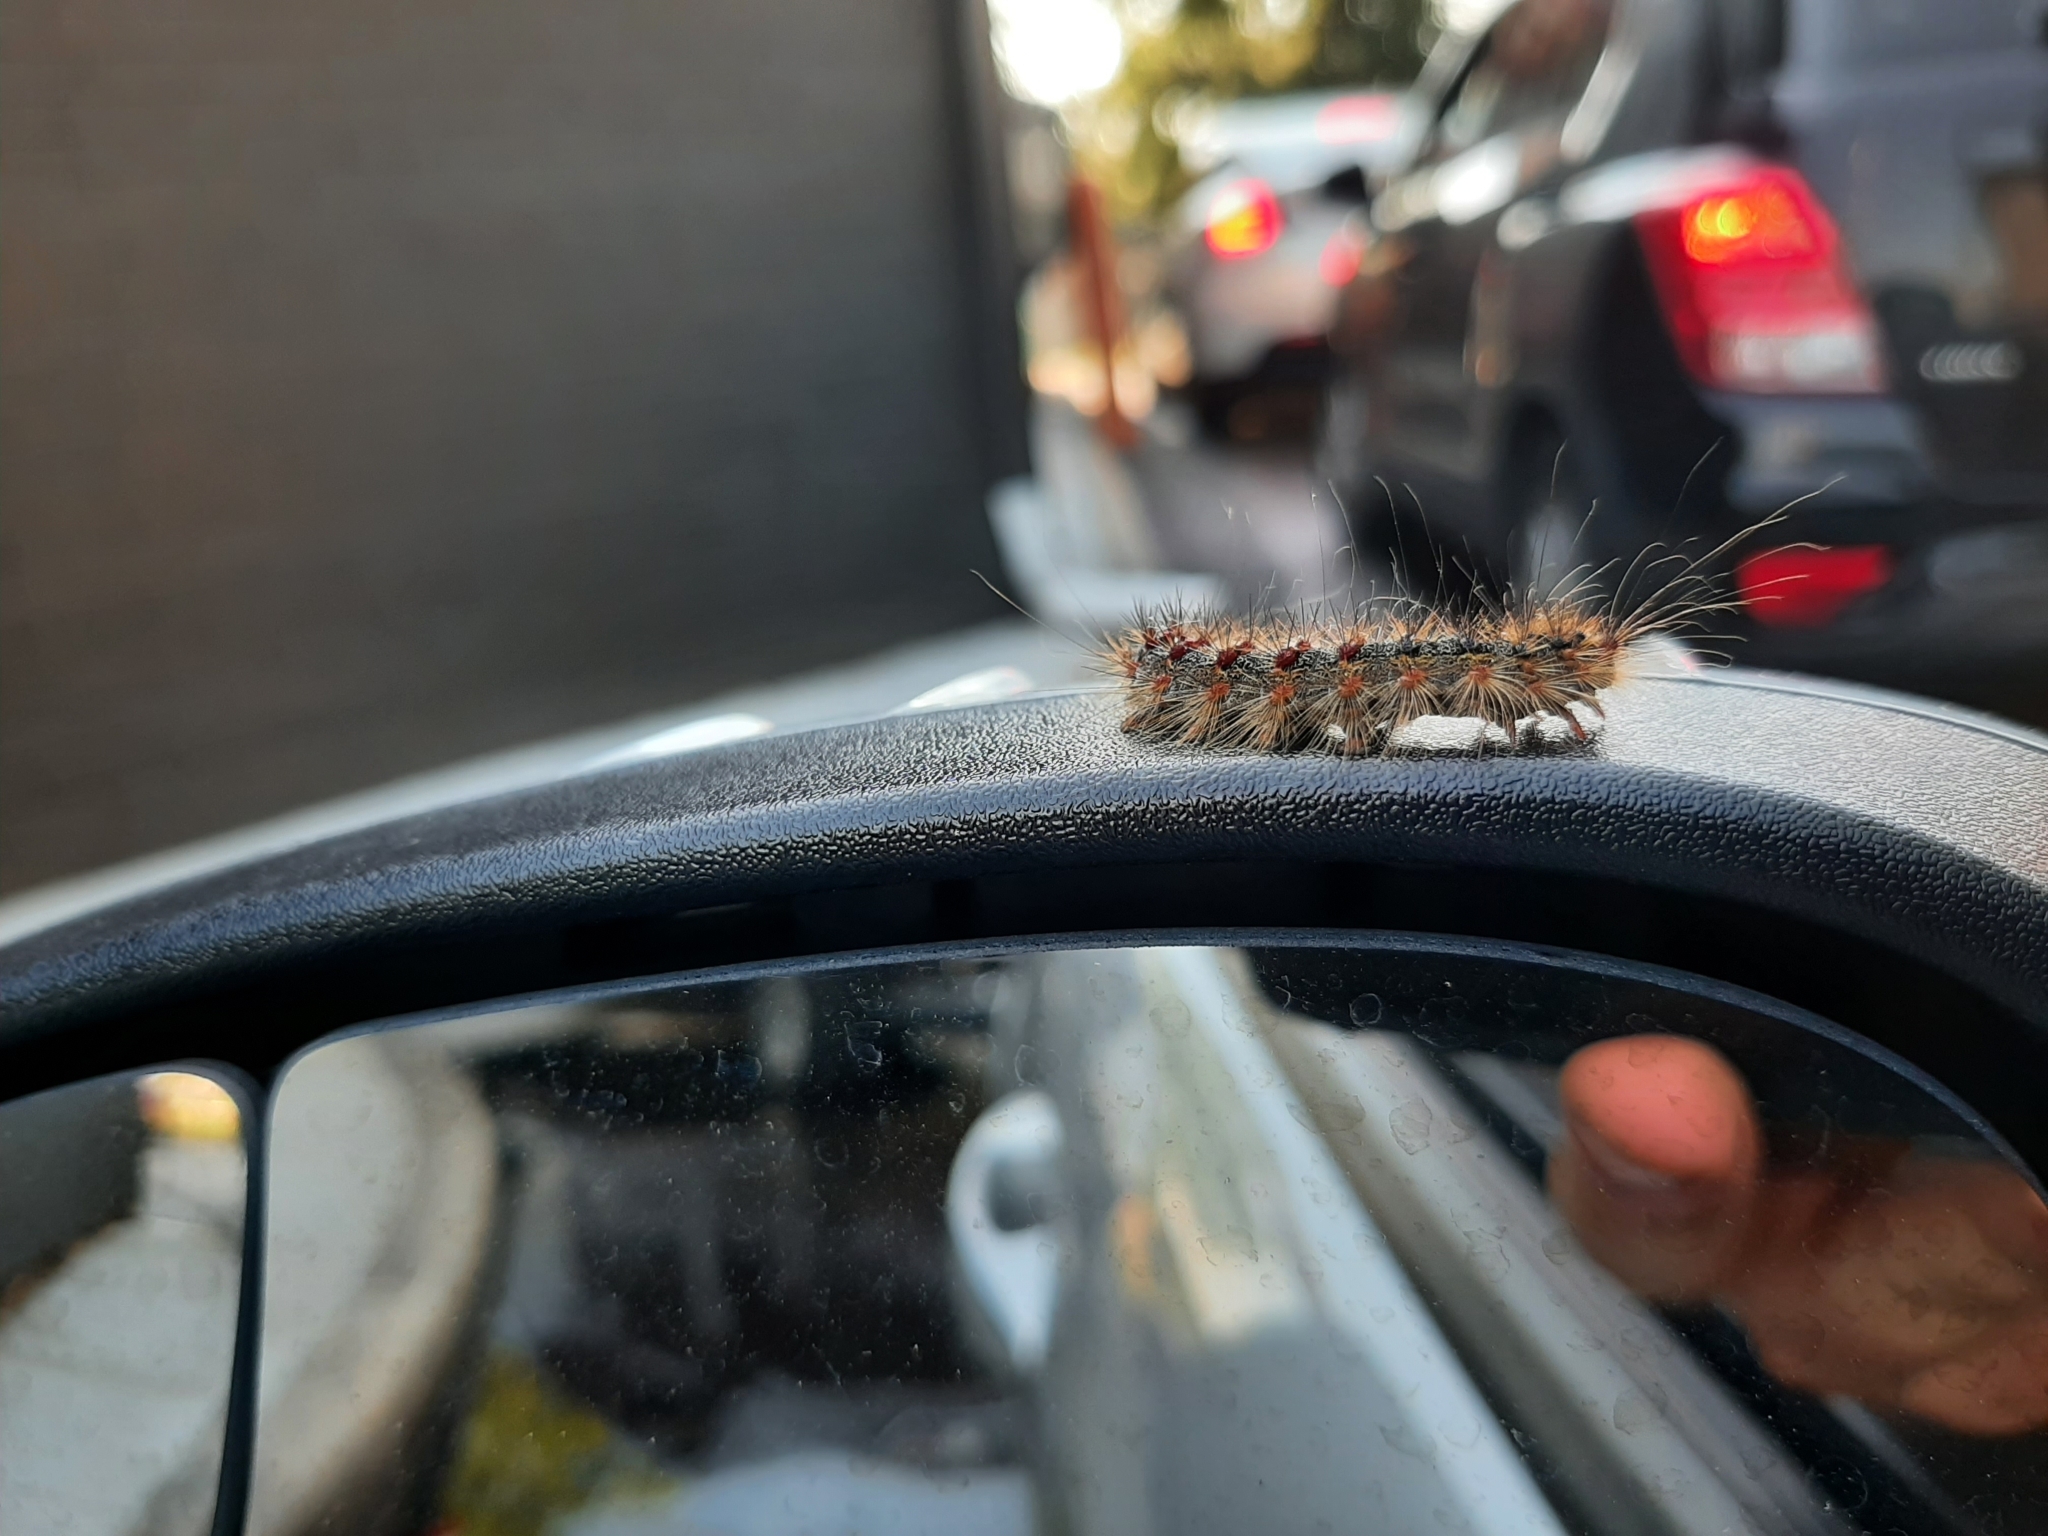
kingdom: Animalia
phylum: Arthropoda
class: Insecta
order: Lepidoptera
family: Erebidae
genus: Lymantria
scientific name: Lymantria dispar
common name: Gypsy moth
